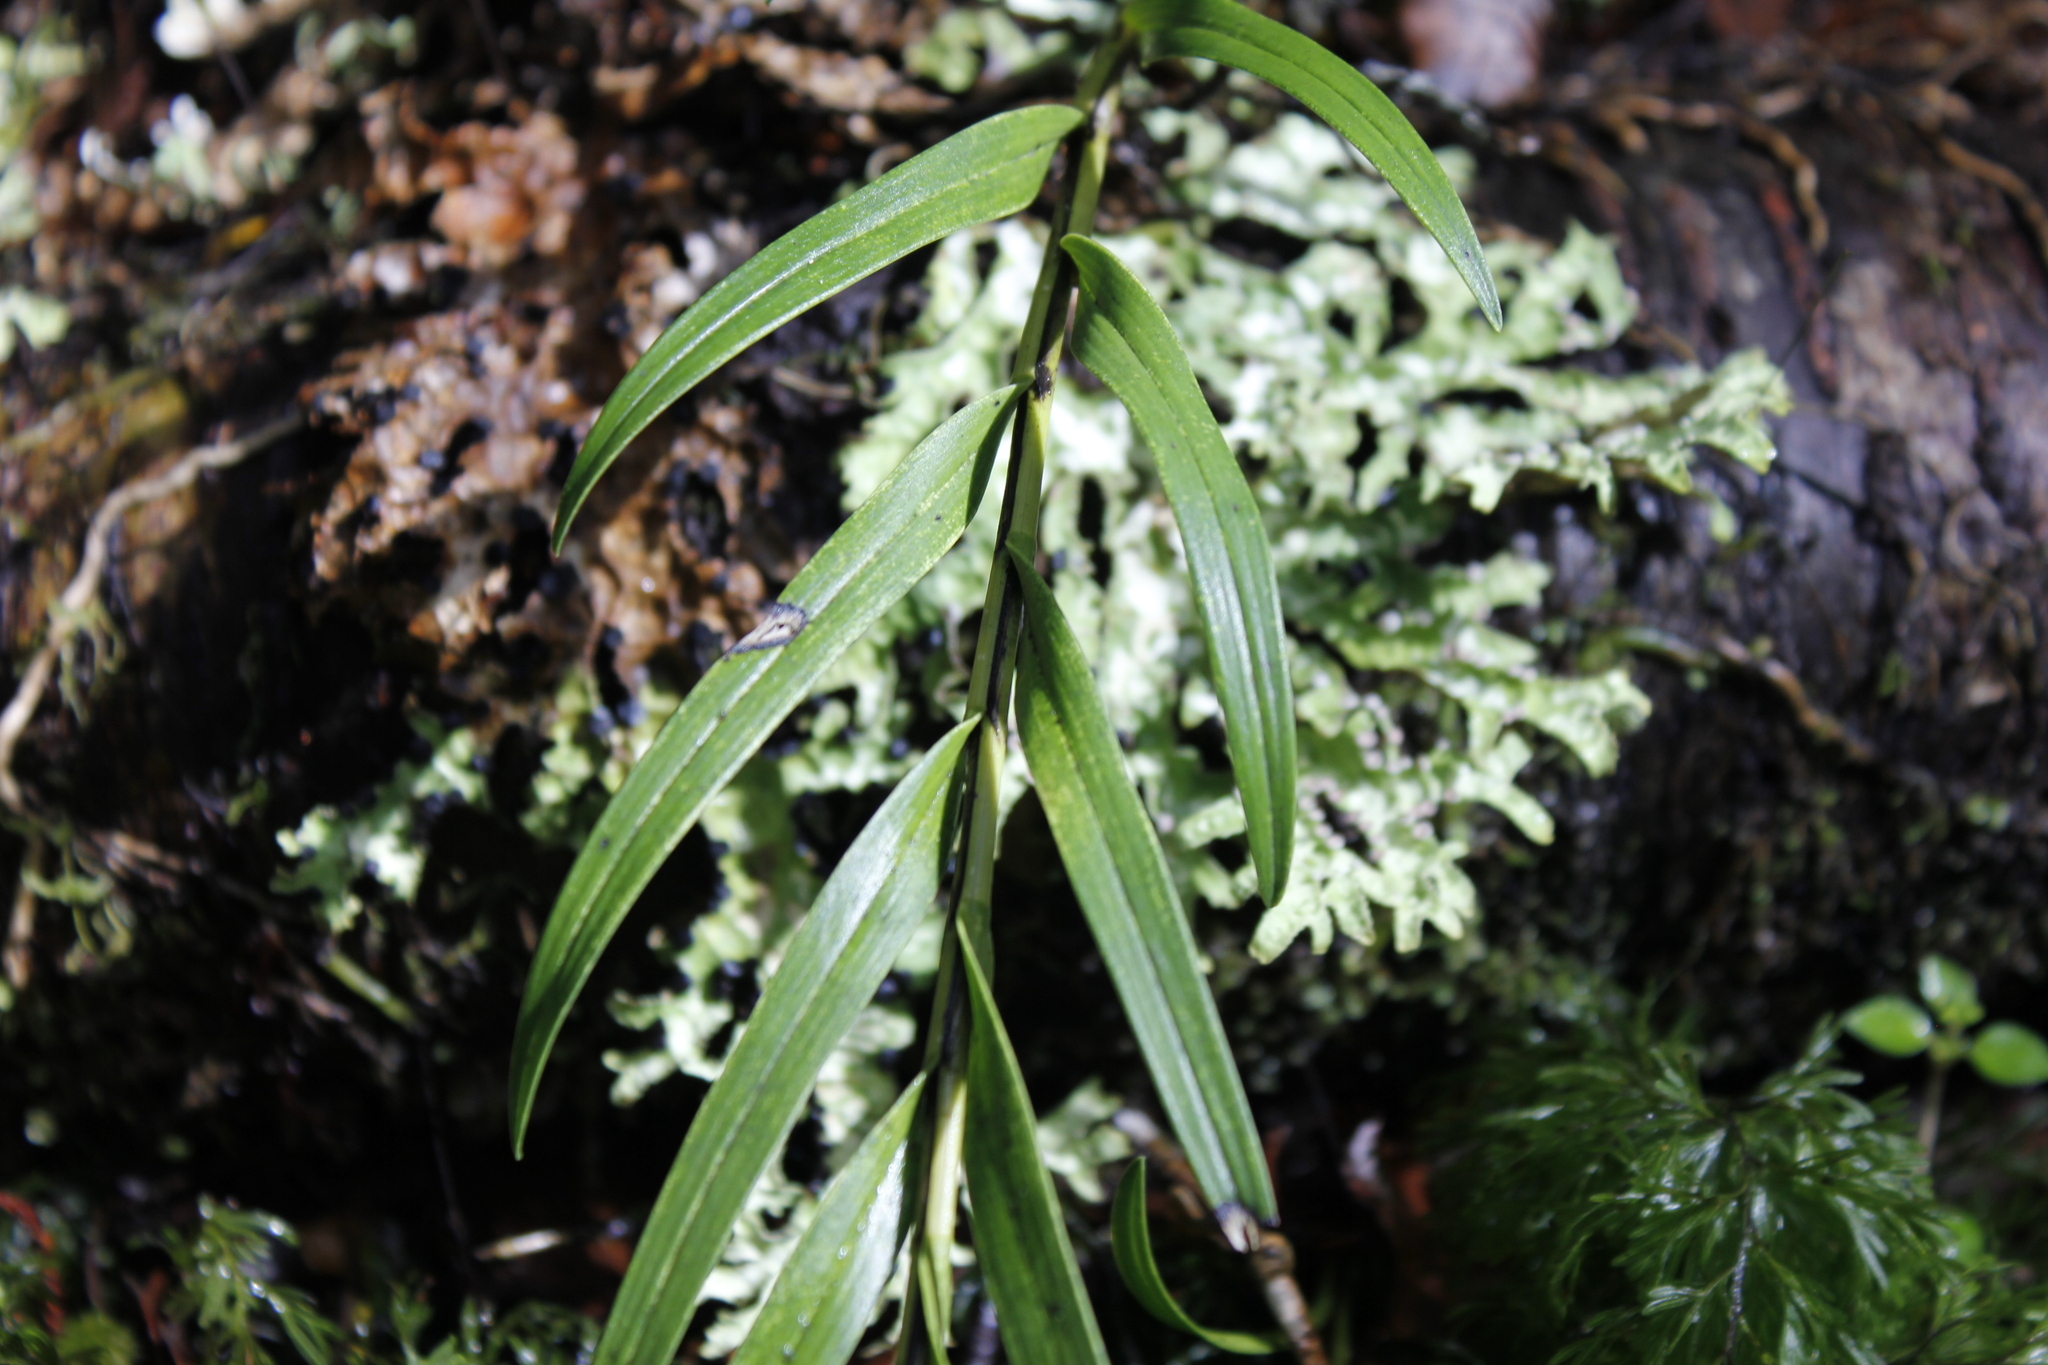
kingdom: Plantae
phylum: Tracheophyta
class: Liliopsida
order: Asparagales
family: Orchidaceae
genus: Earina
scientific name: Earina autumnalis
